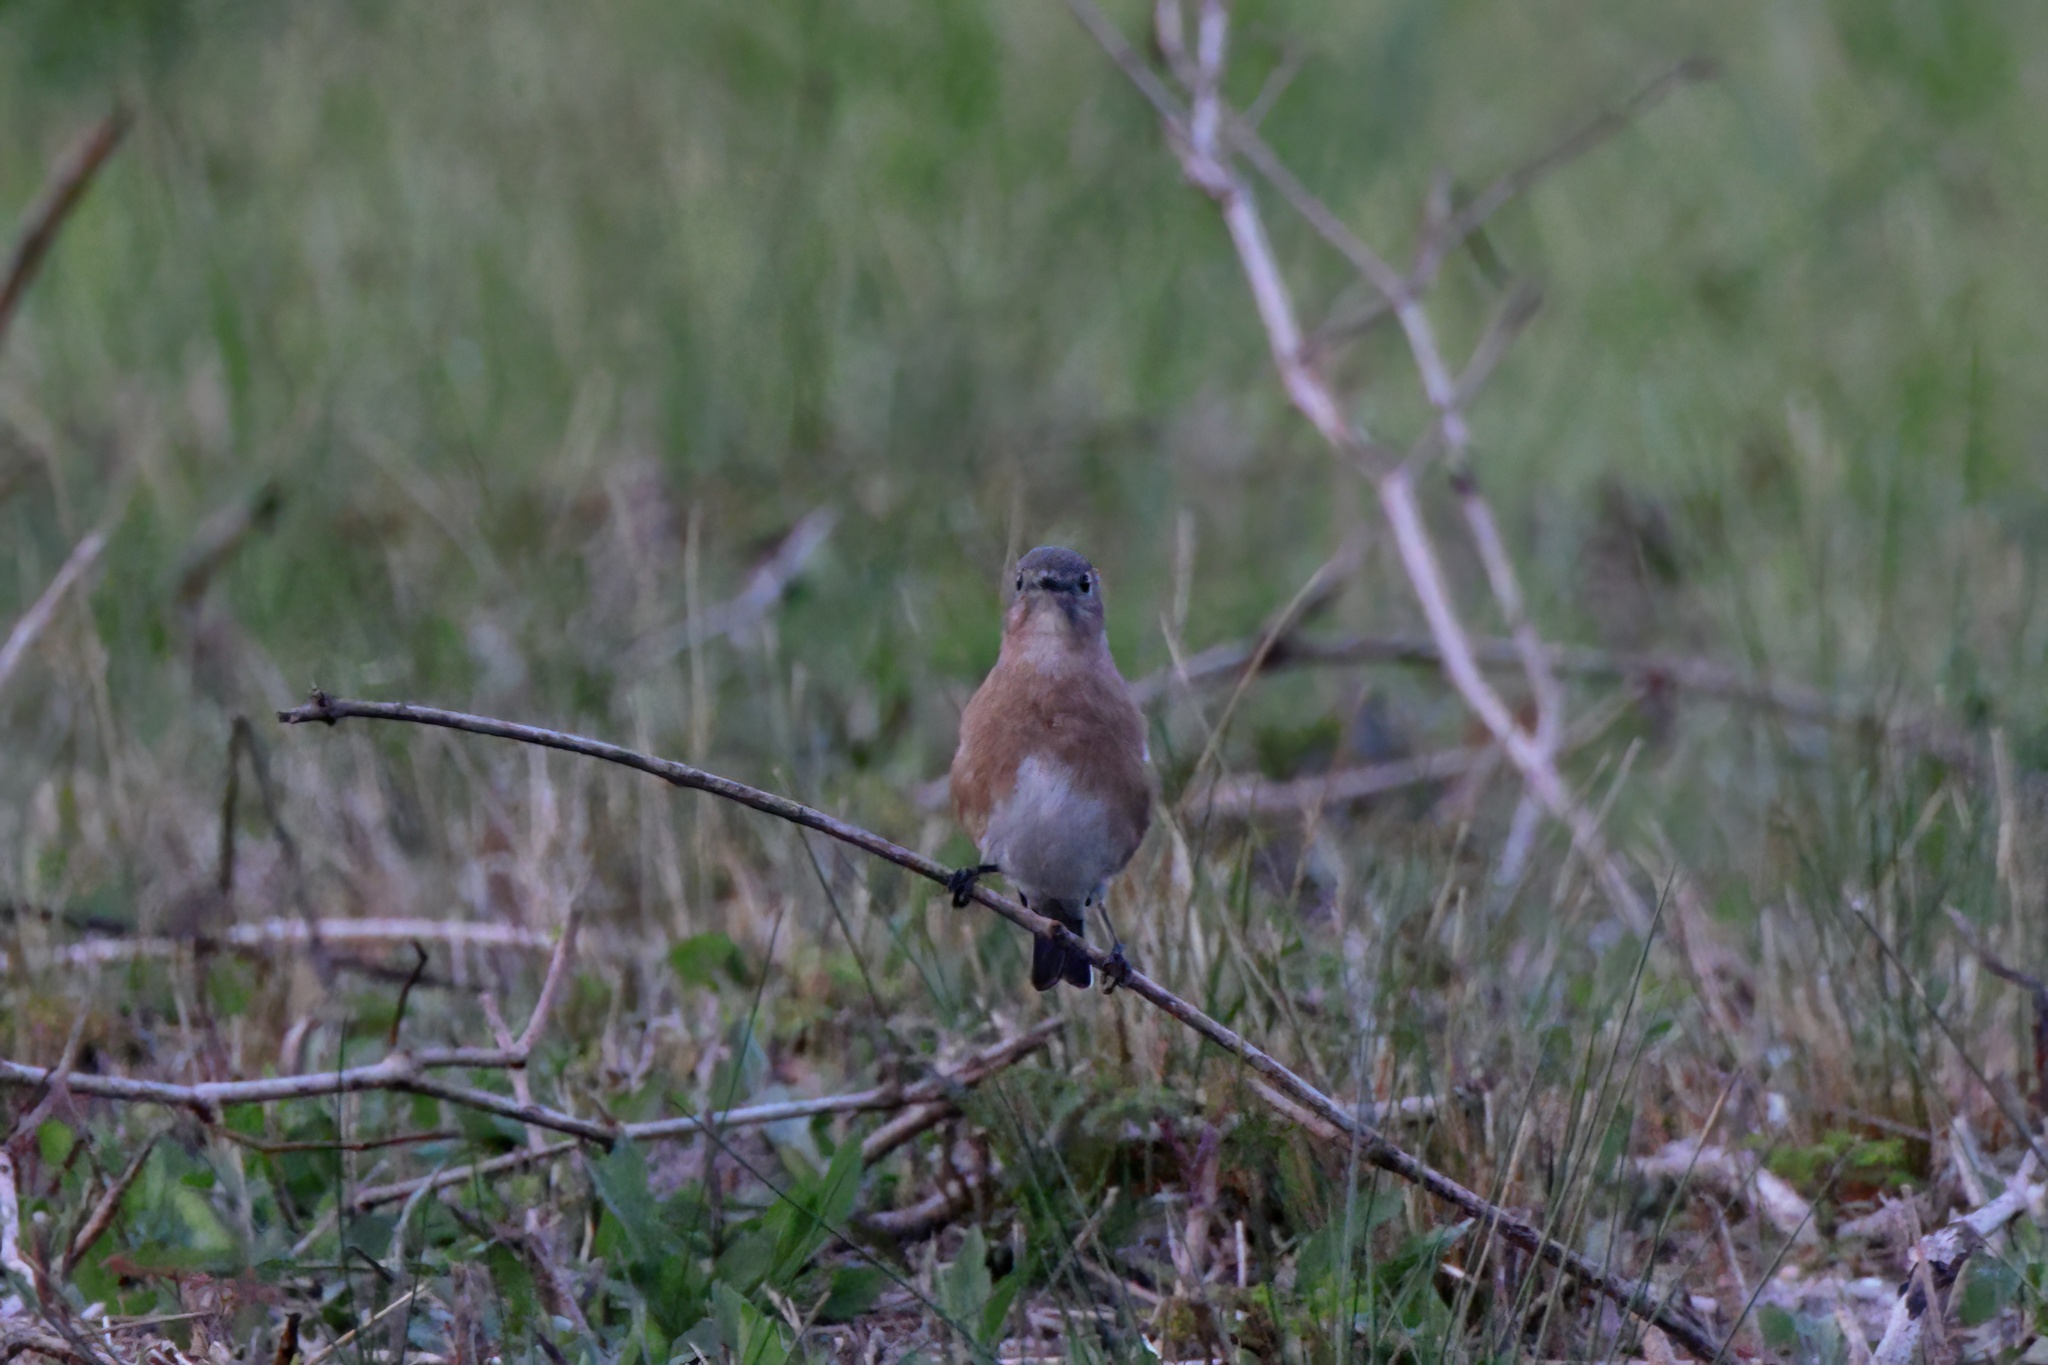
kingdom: Animalia
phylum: Chordata
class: Aves
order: Passeriformes
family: Turdidae
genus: Sialia
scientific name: Sialia sialis
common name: Eastern bluebird
